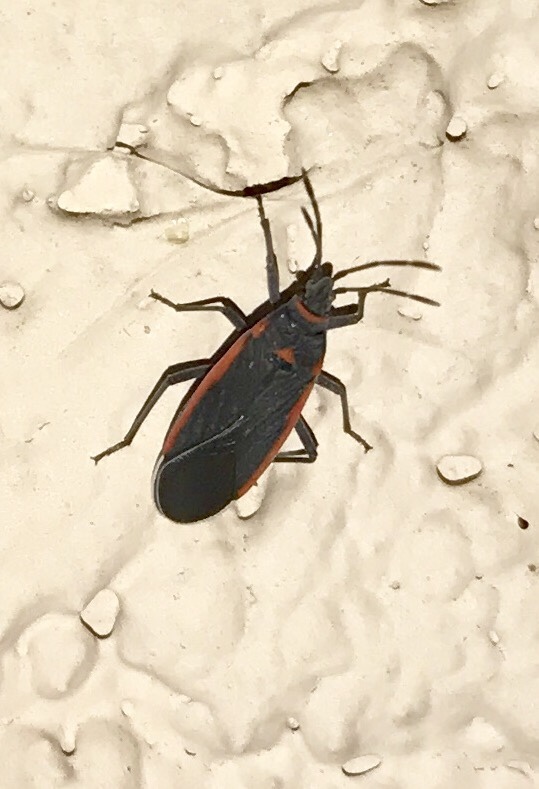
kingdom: Animalia
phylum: Arthropoda
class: Insecta
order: Hemiptera
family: Lygaeidae
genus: Melacoryphus
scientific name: Melacoryphus lateralis
